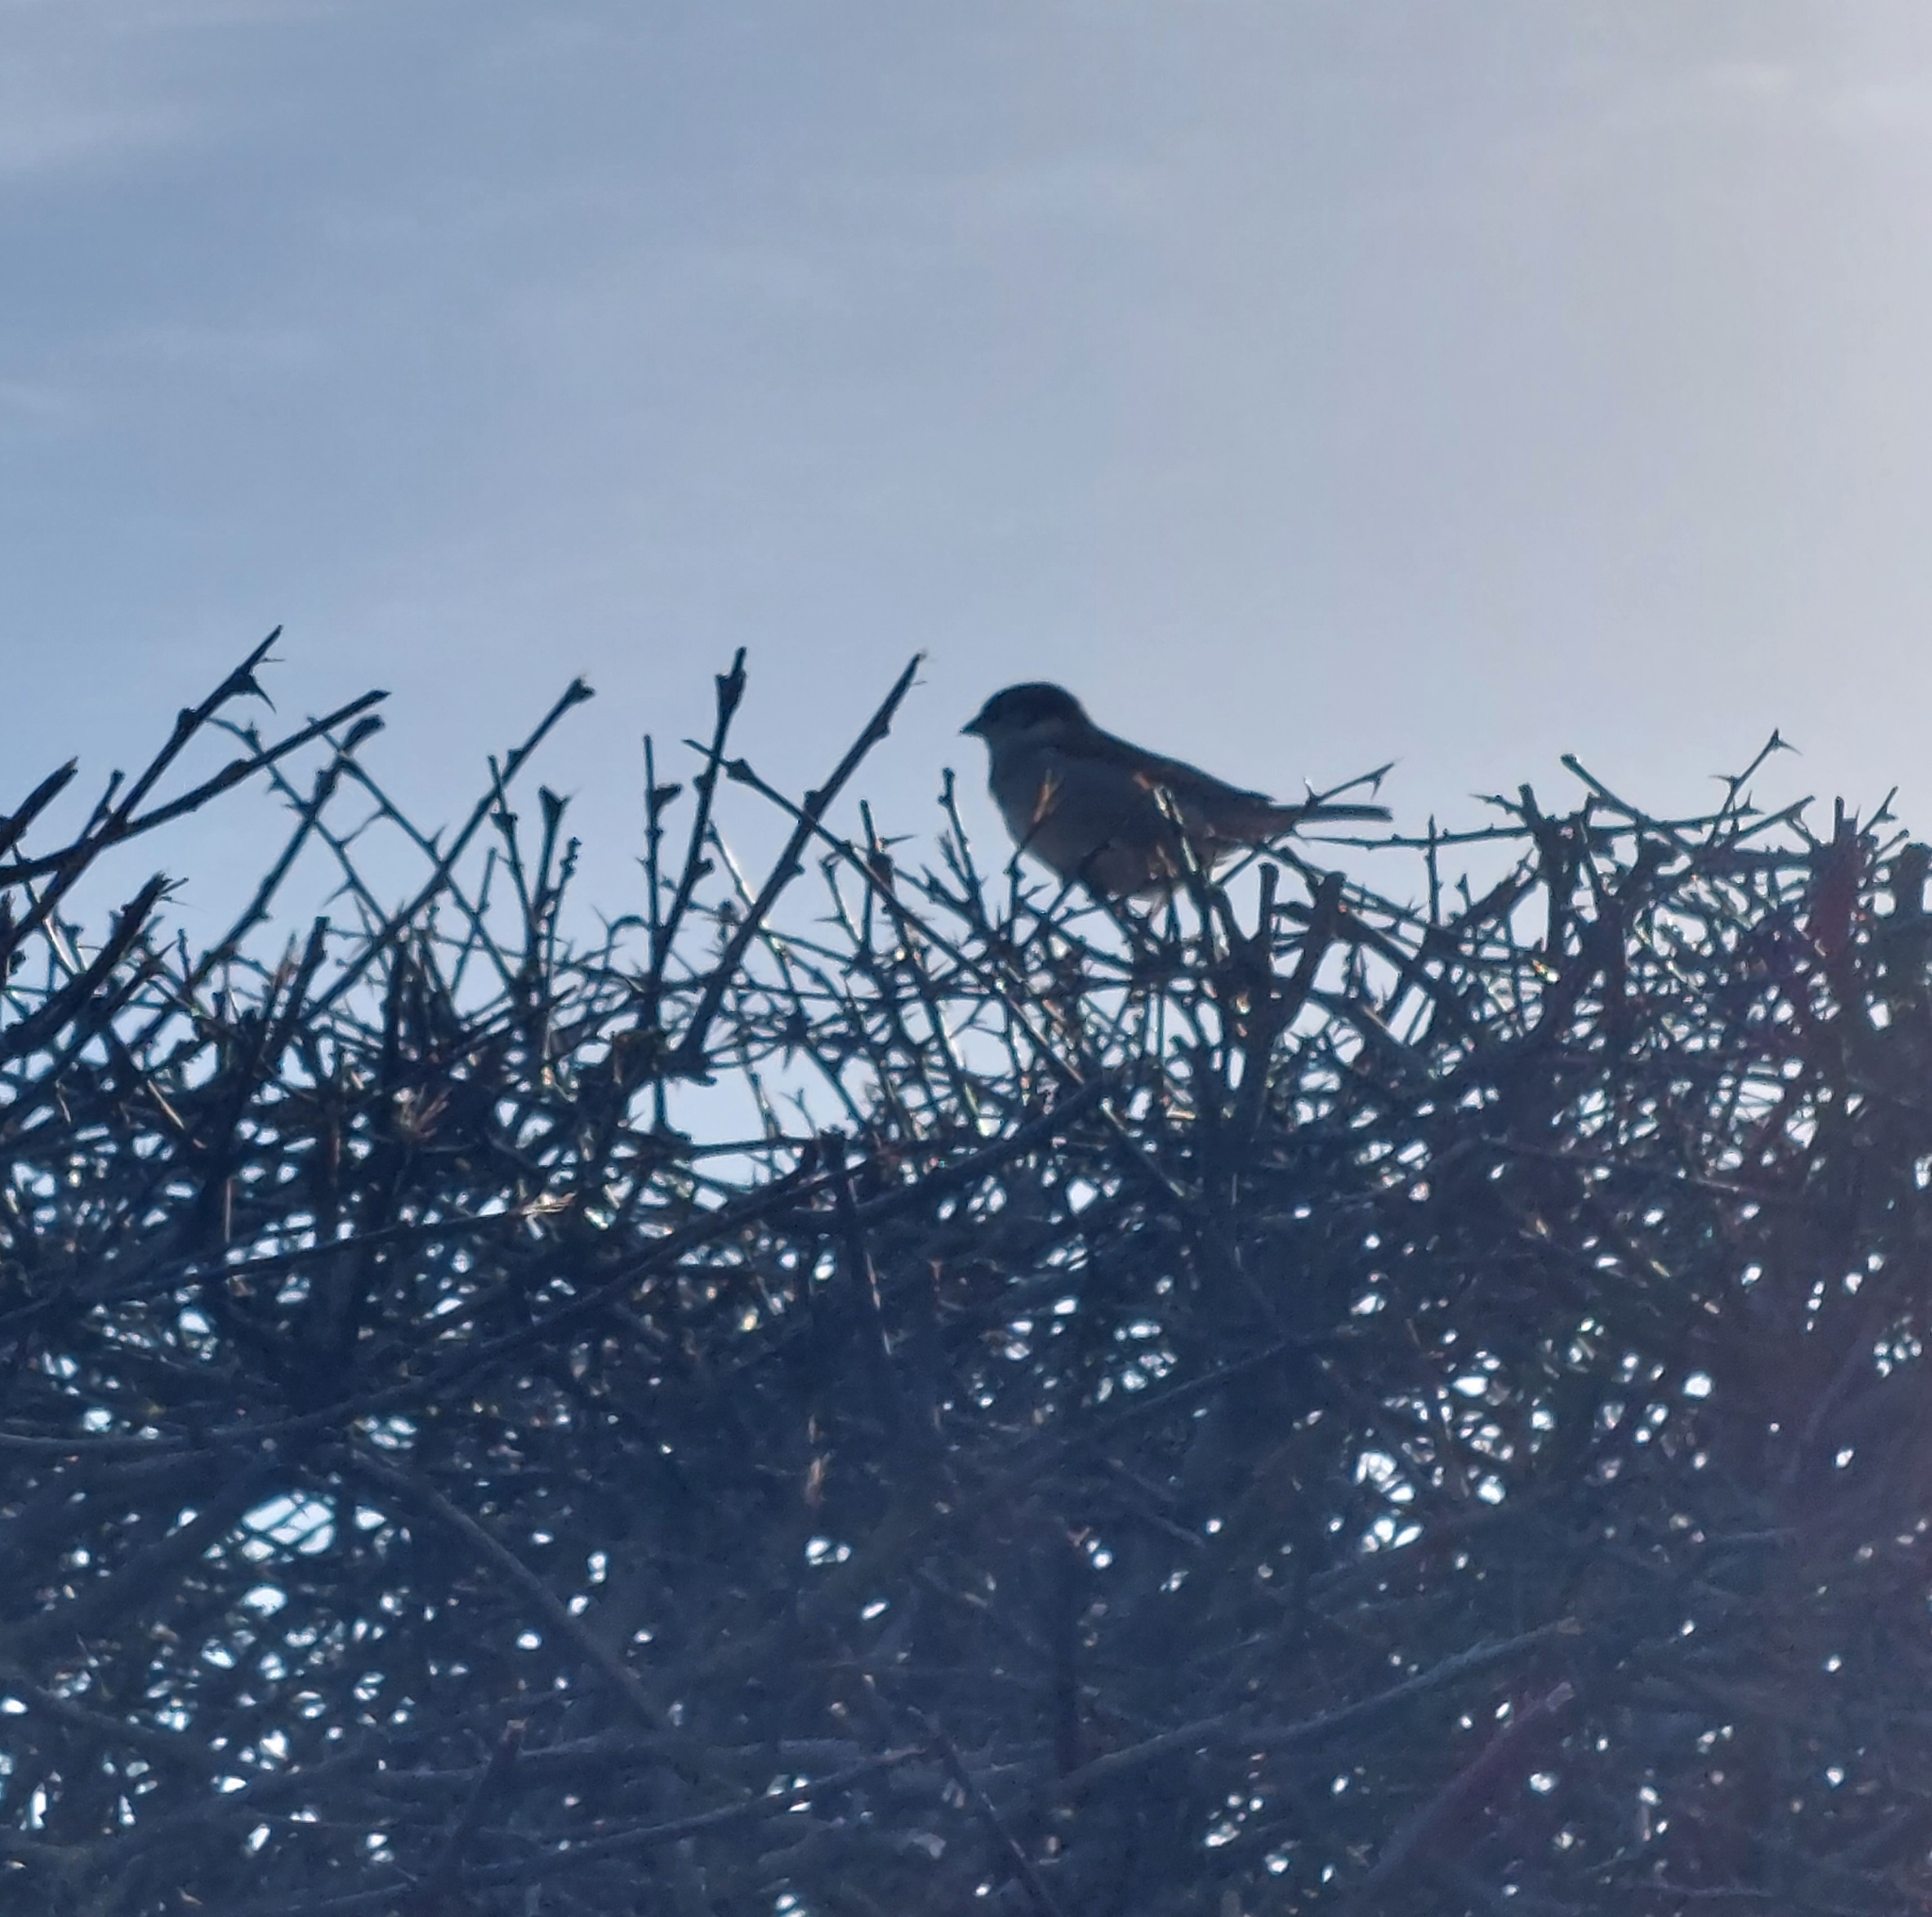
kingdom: Animalia
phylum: Chordata
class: Aves
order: Passeriformes
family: Passeridae
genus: Passer
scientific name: Passer domesticus
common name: House sparrow
